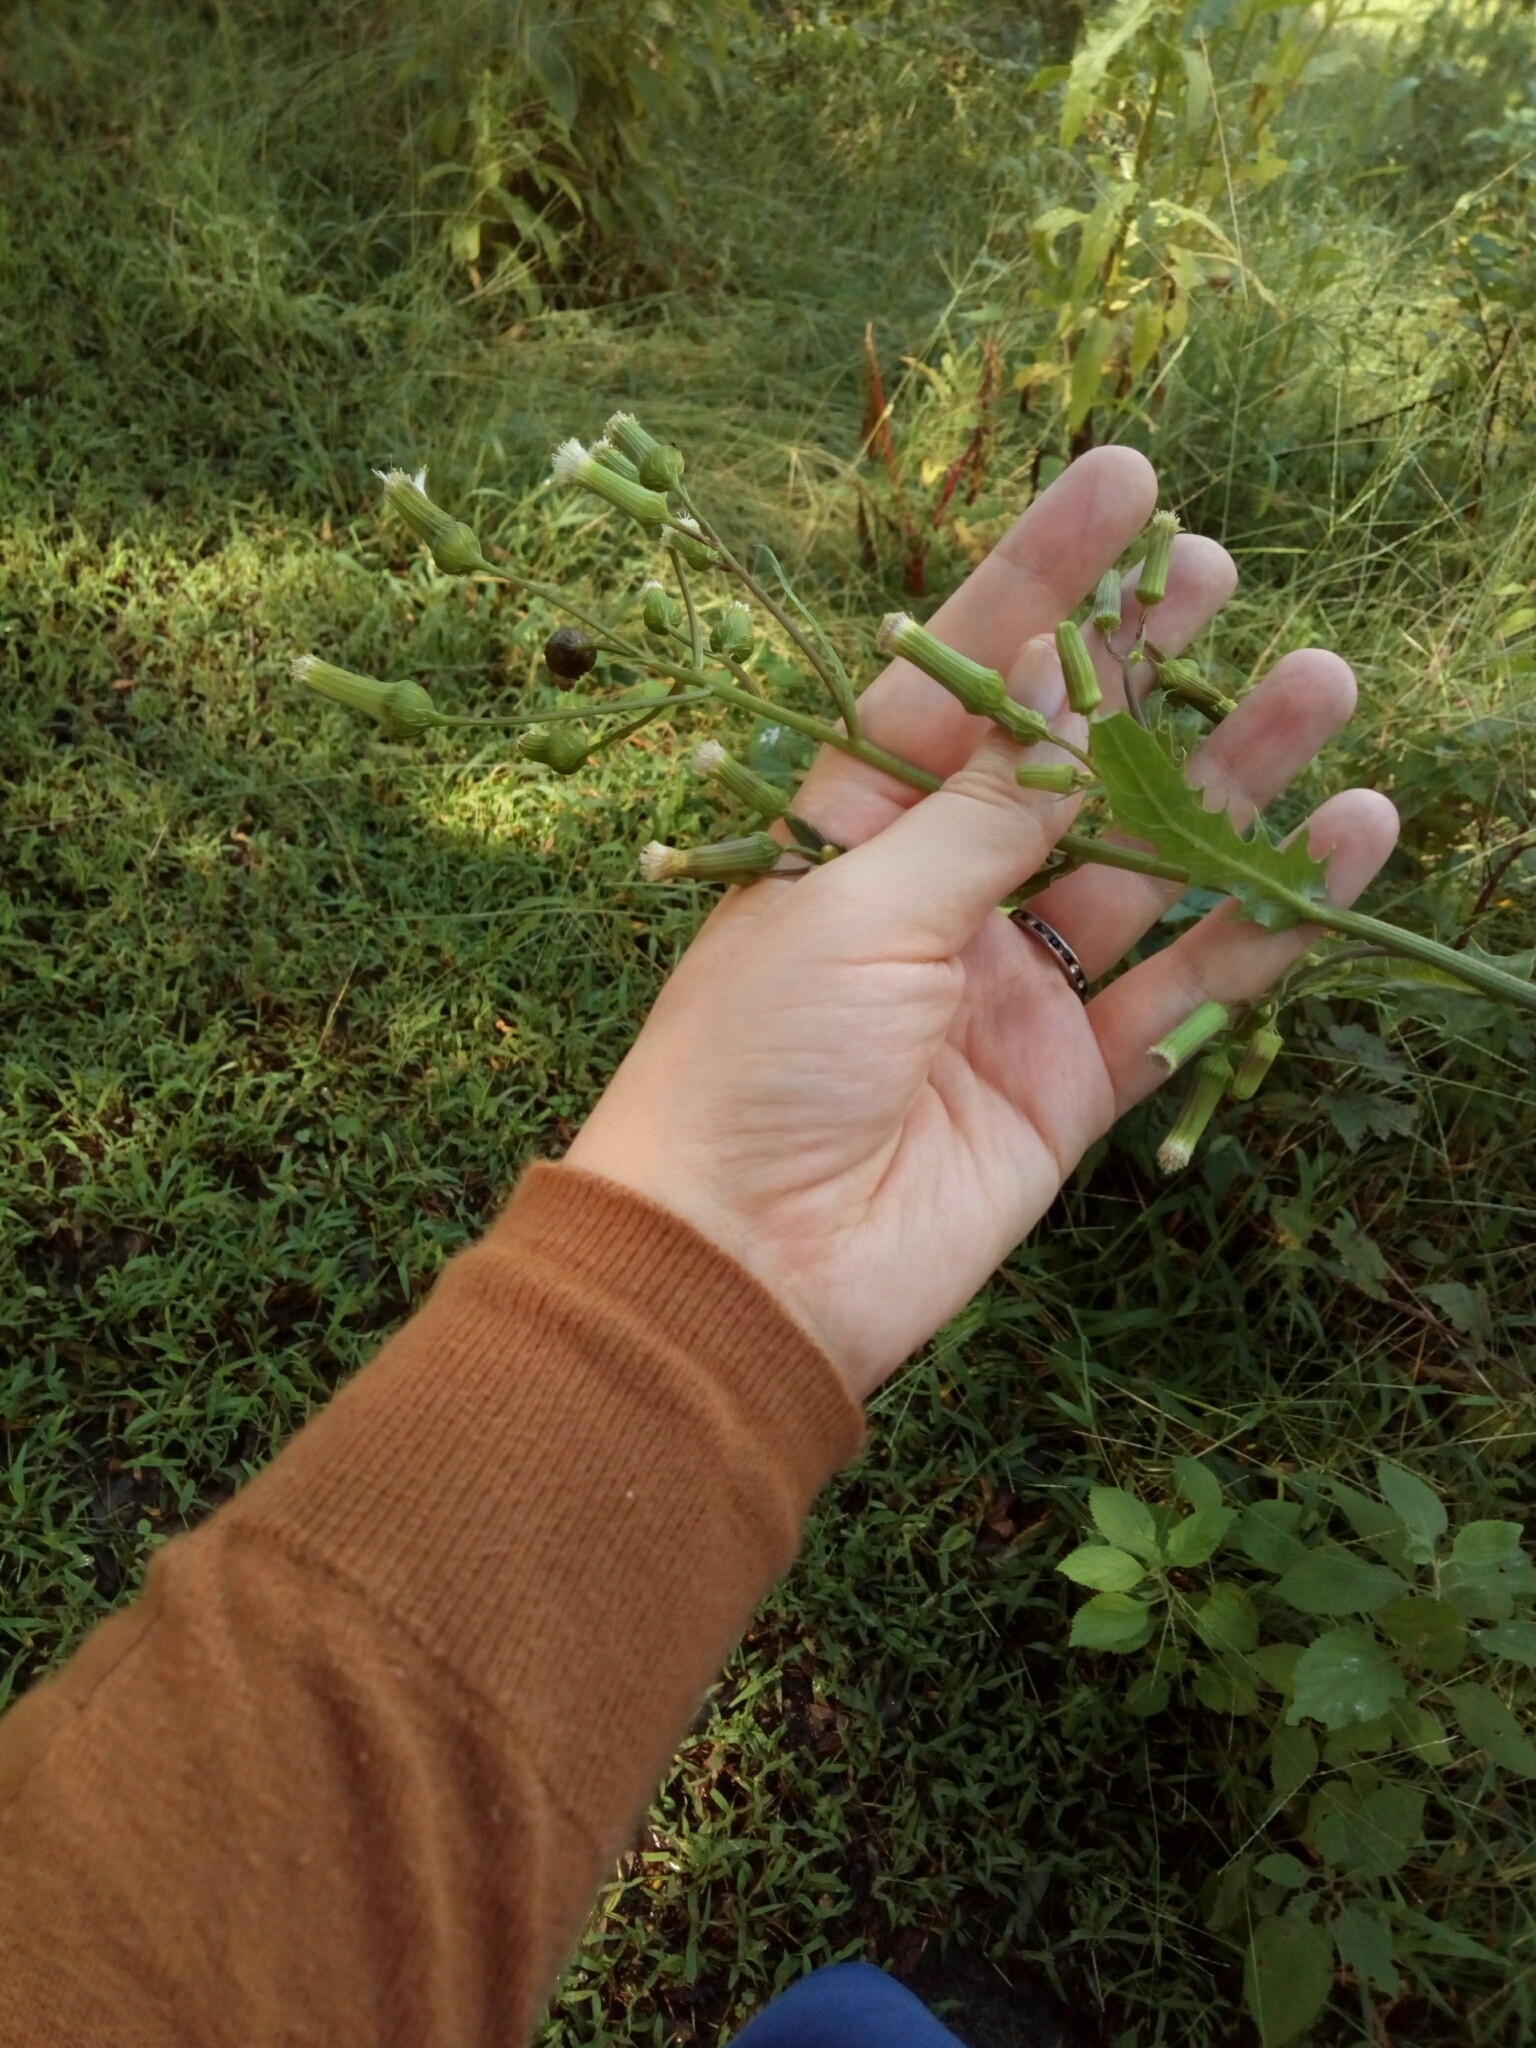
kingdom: Plantae
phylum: Tracheophyta
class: Magnoliopsida
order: Asterales
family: Asteraceae
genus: Erechtites
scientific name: Erechtites hieraciifolius
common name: American burnweed
